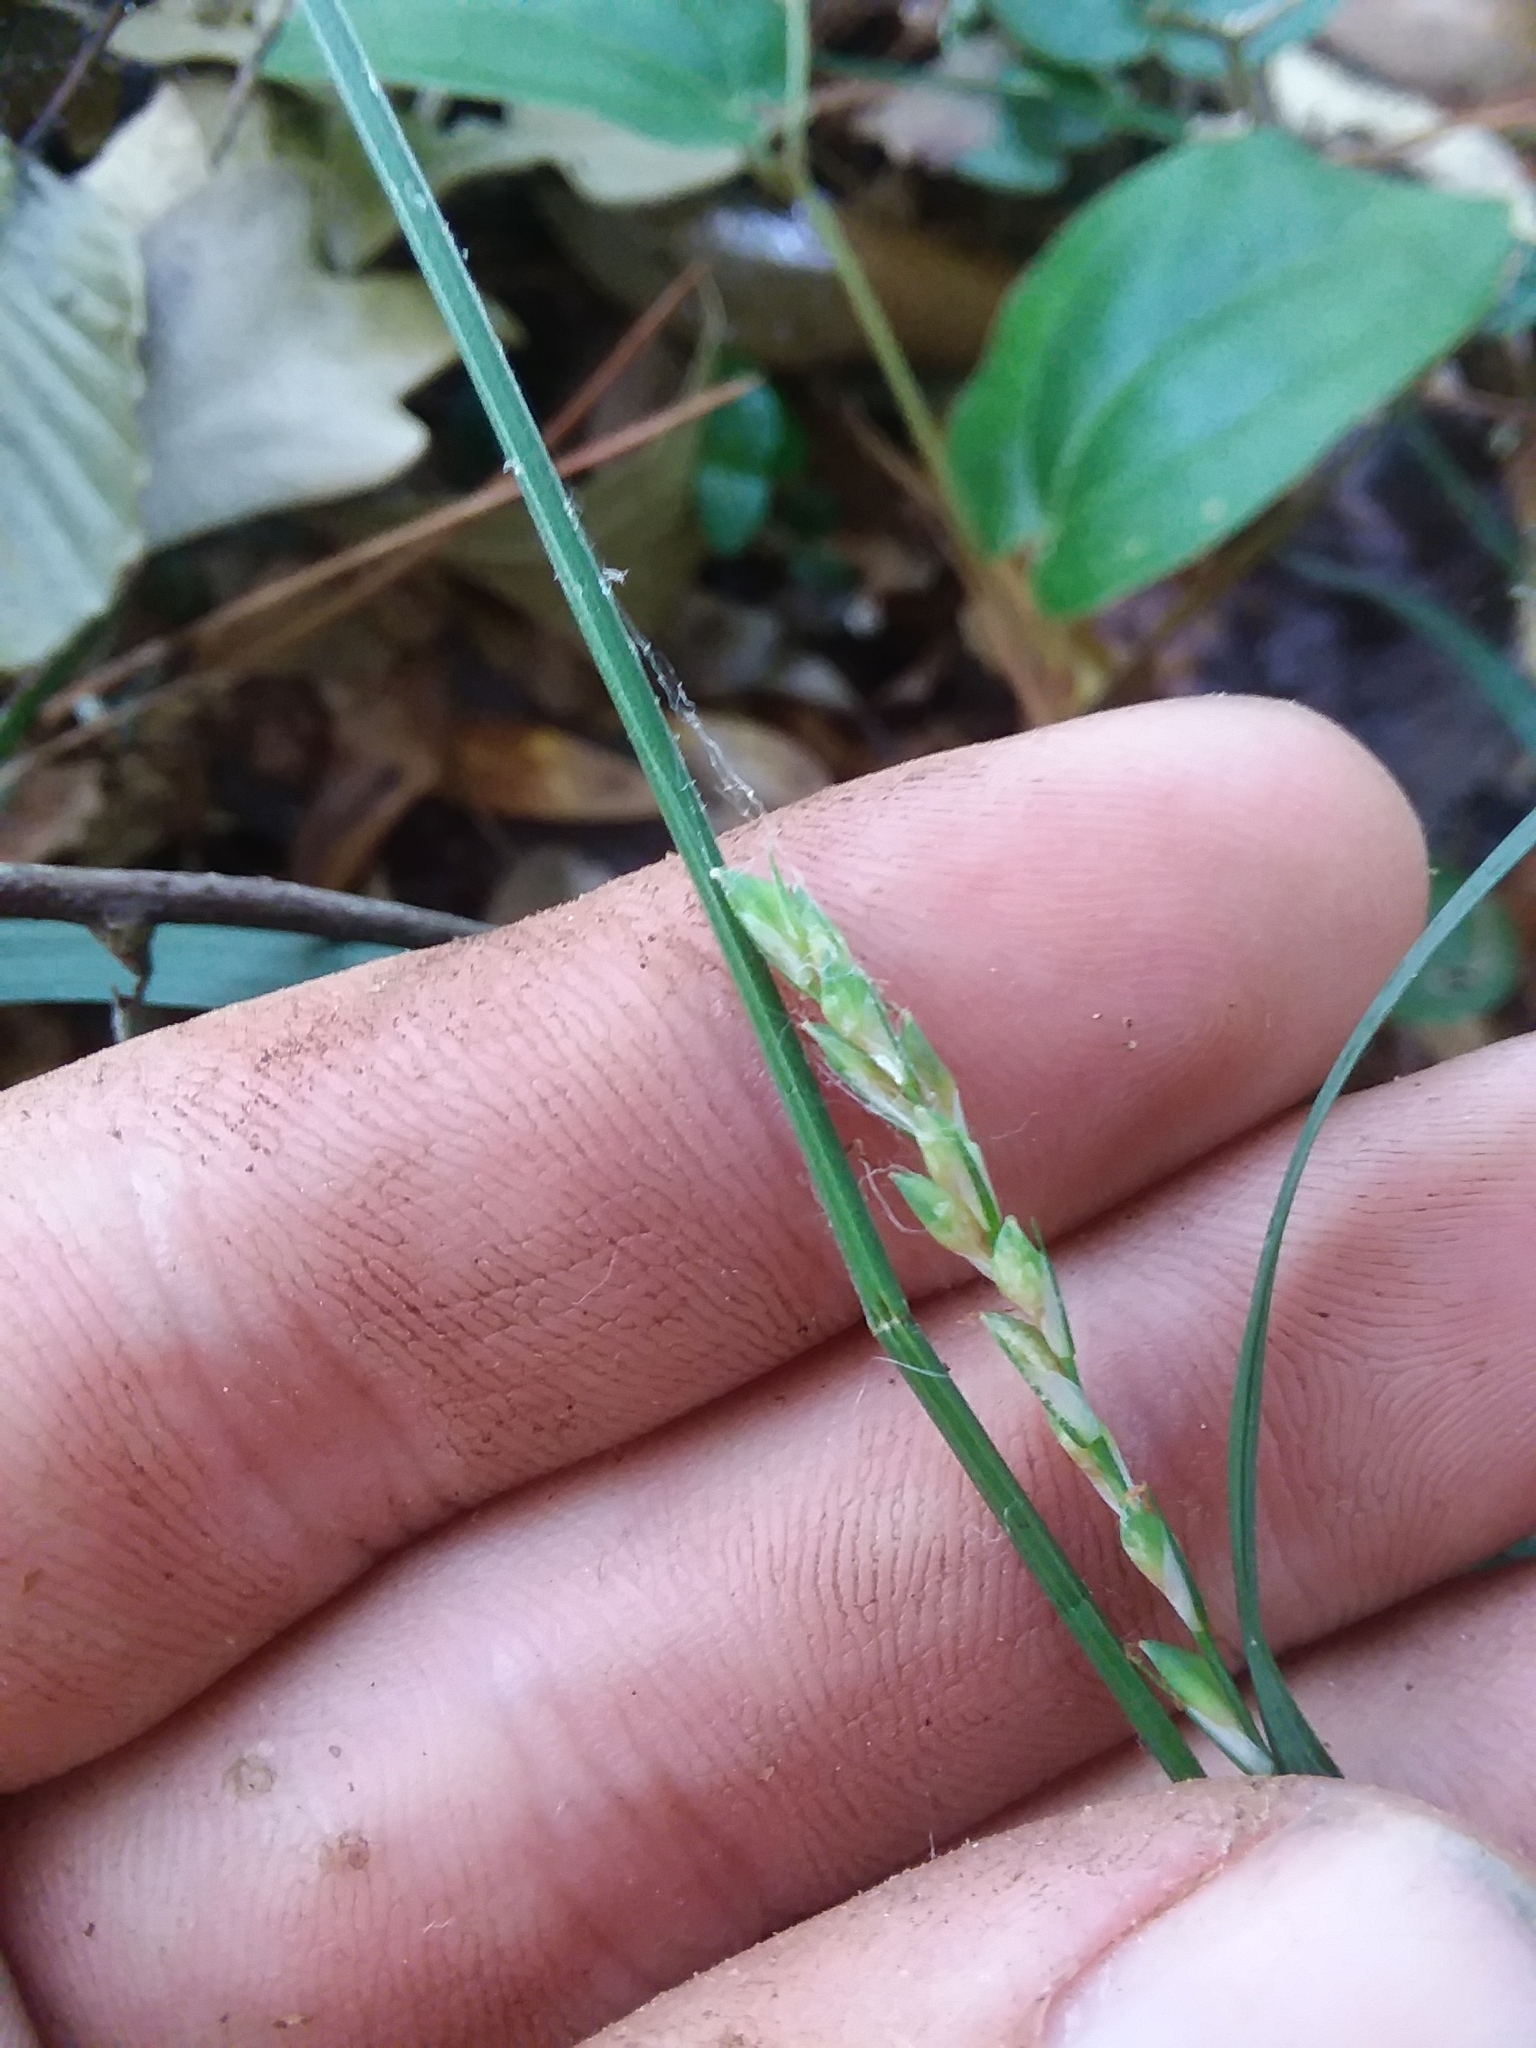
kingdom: Plantae
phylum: Tracheophyta
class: Liliopsida
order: Poales
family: Cyperaceae
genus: Carex
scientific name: Carex ignota
